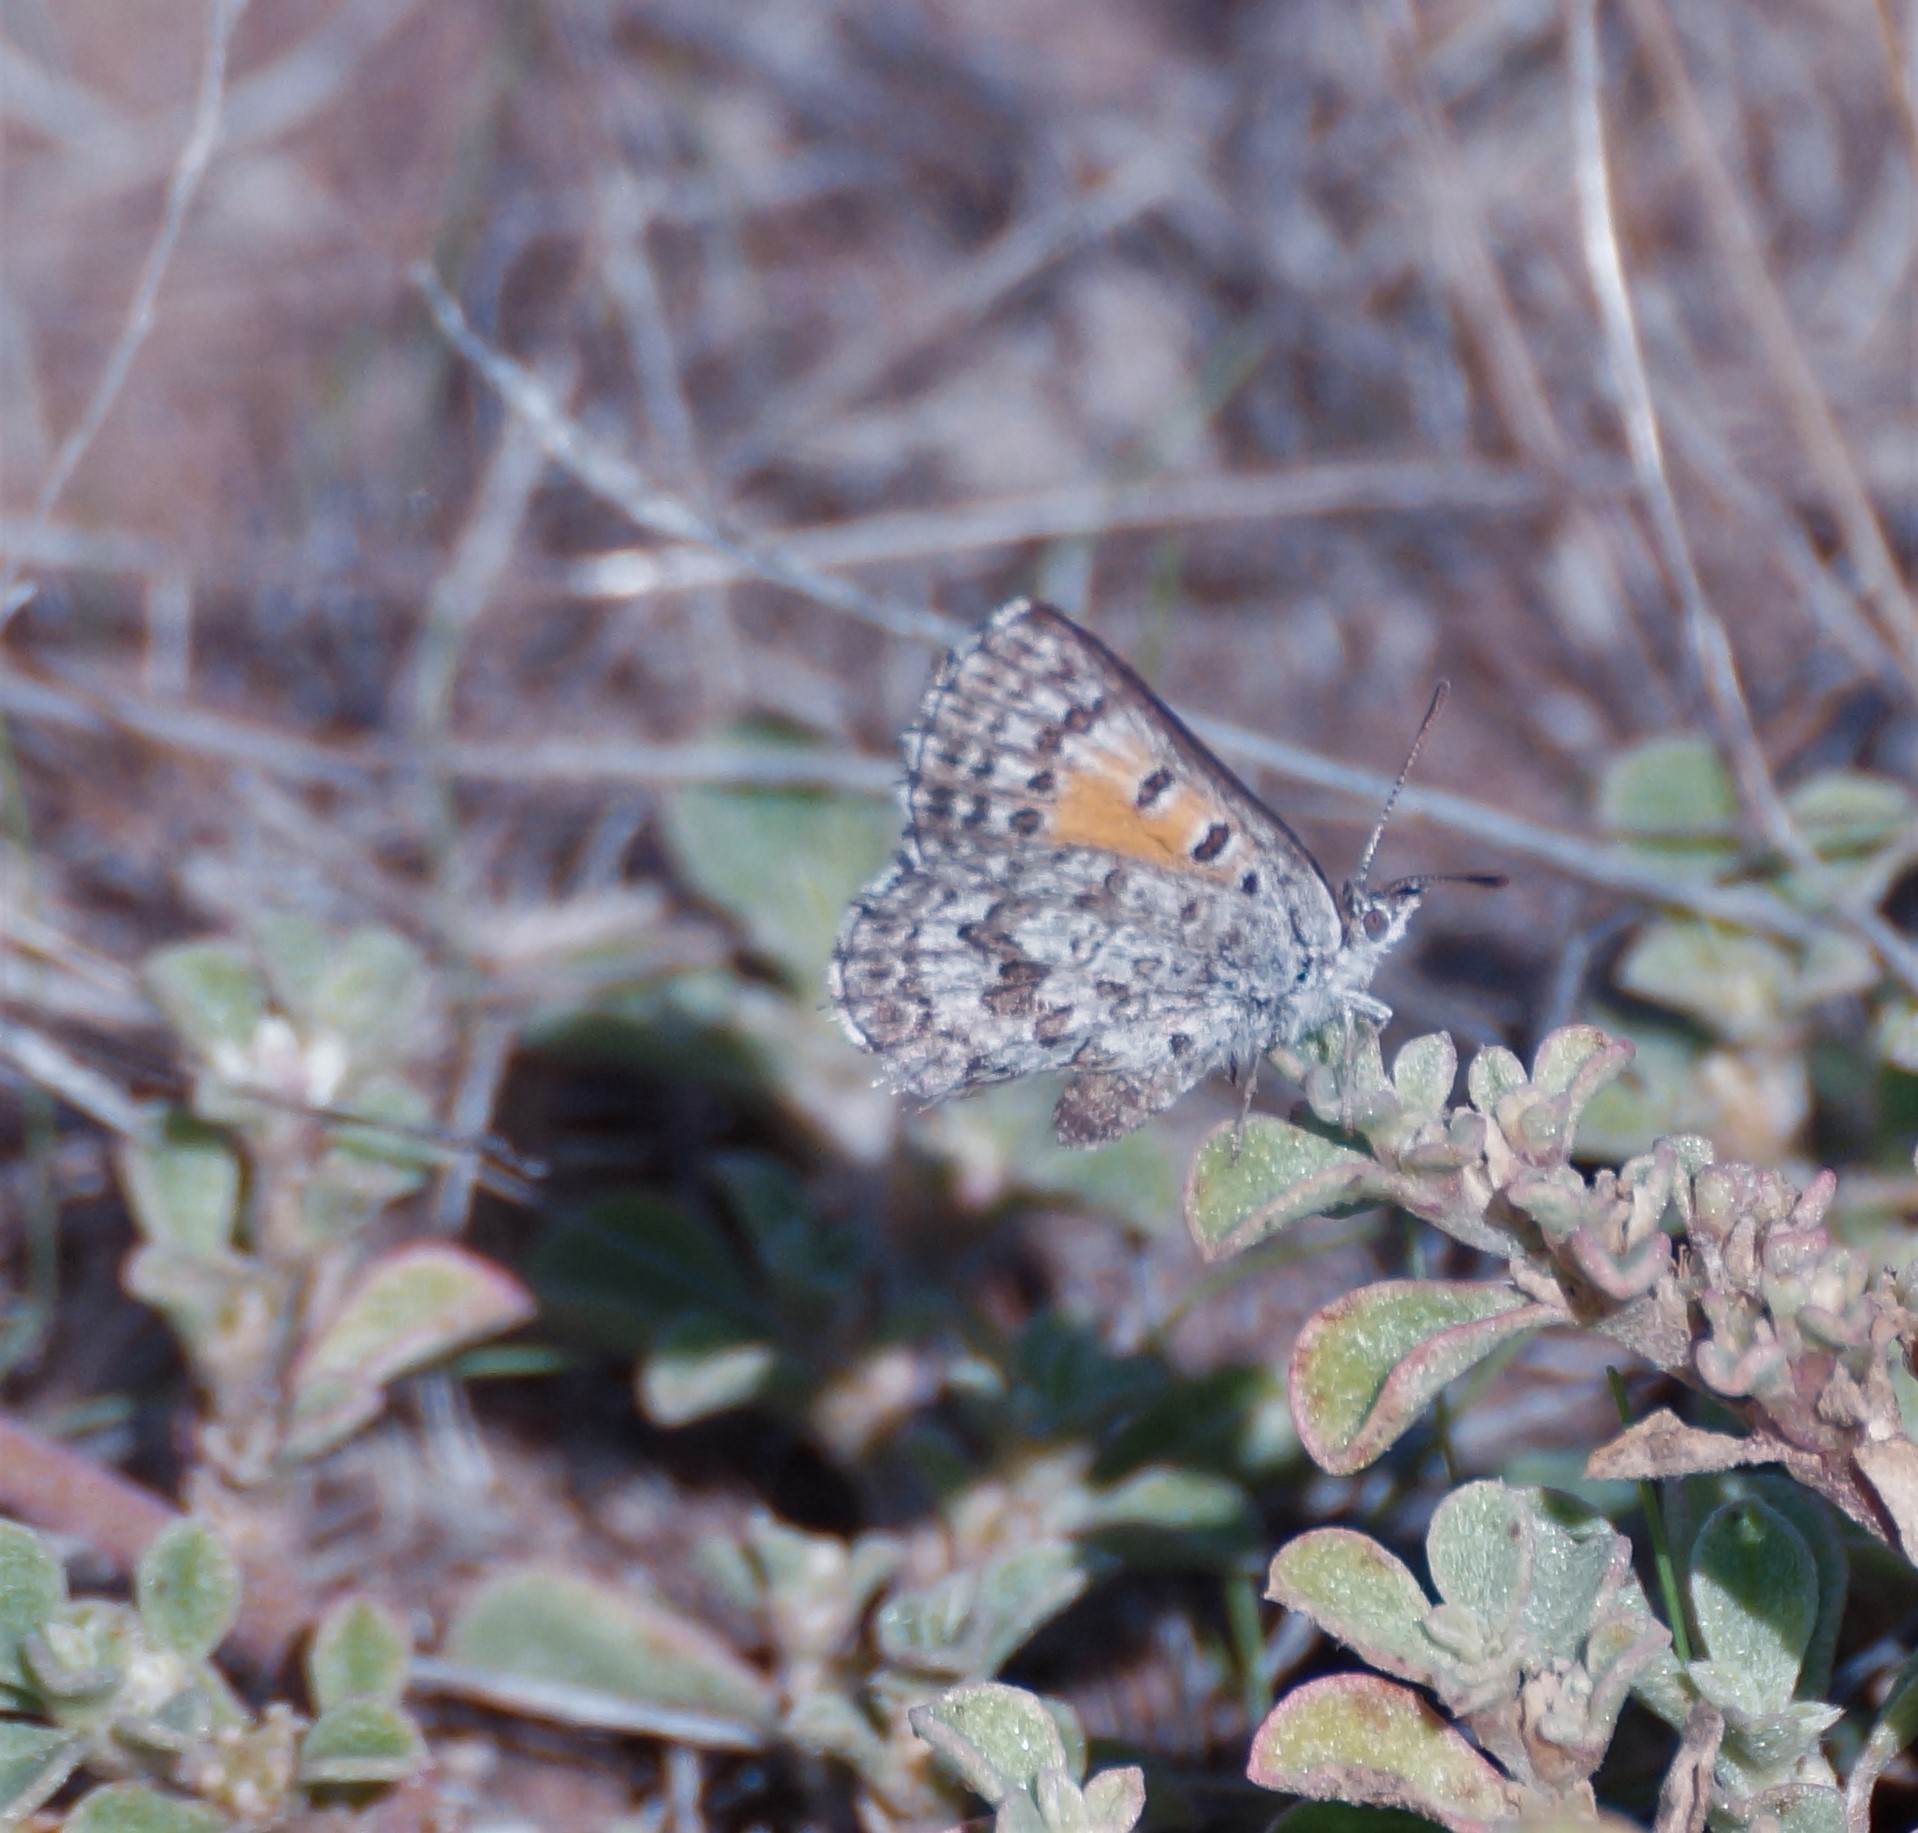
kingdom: Animalia
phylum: Arthropoda
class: Insecta
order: Lepidoptera
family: Lycaenidae
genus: Lucia
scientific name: Lucia limbaria
